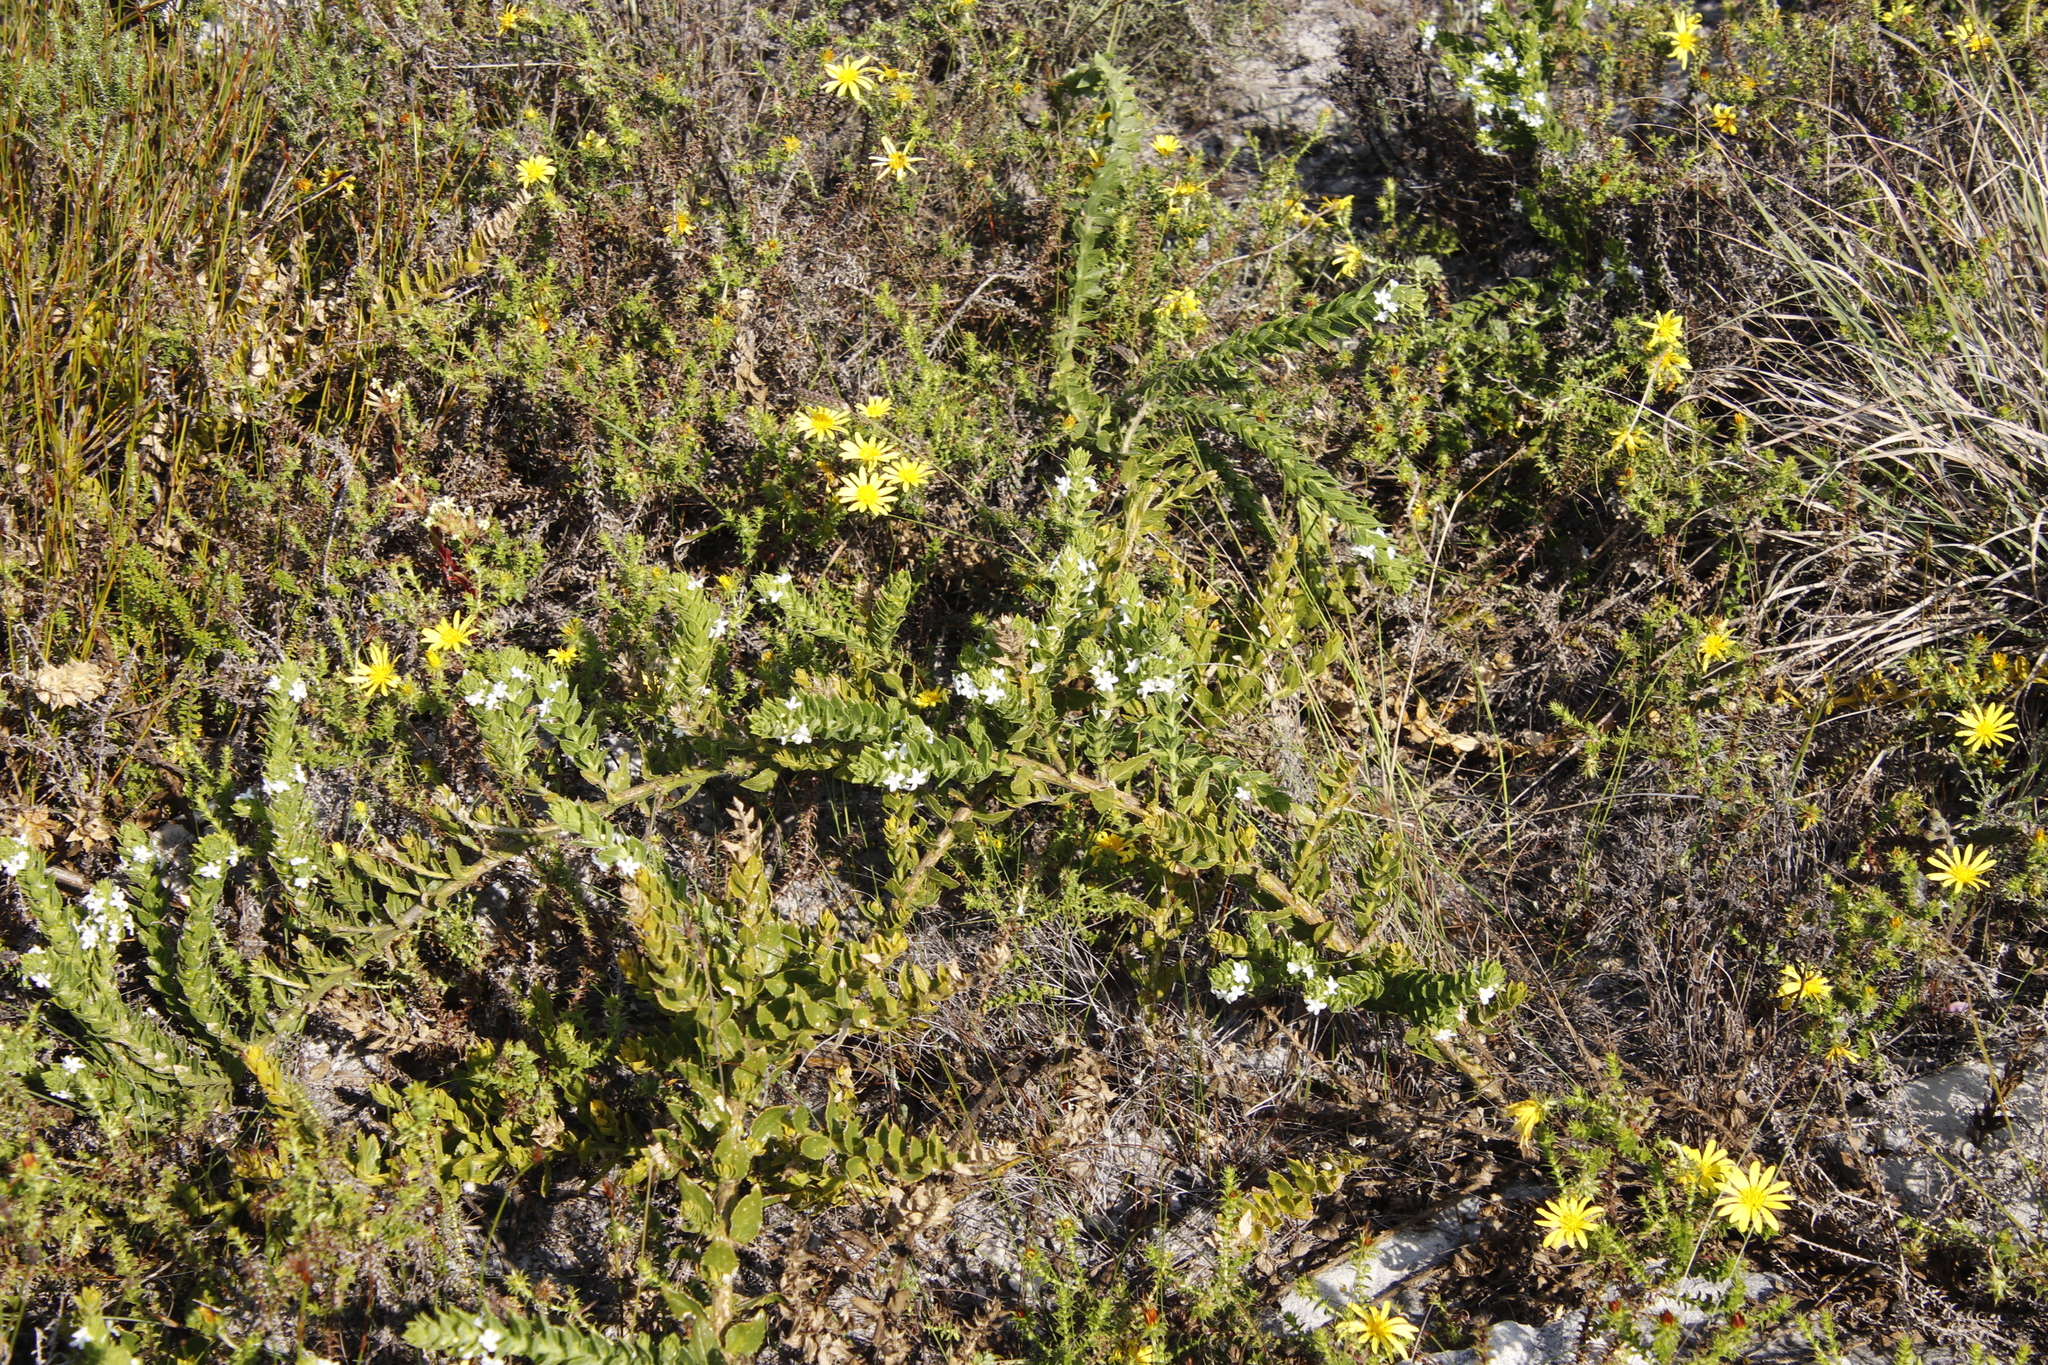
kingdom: Plantae
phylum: Tracheophyta
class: Magnoliopsida
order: Lamiales
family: Scrophulariaceae
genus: Oftia
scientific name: Oftia africana
